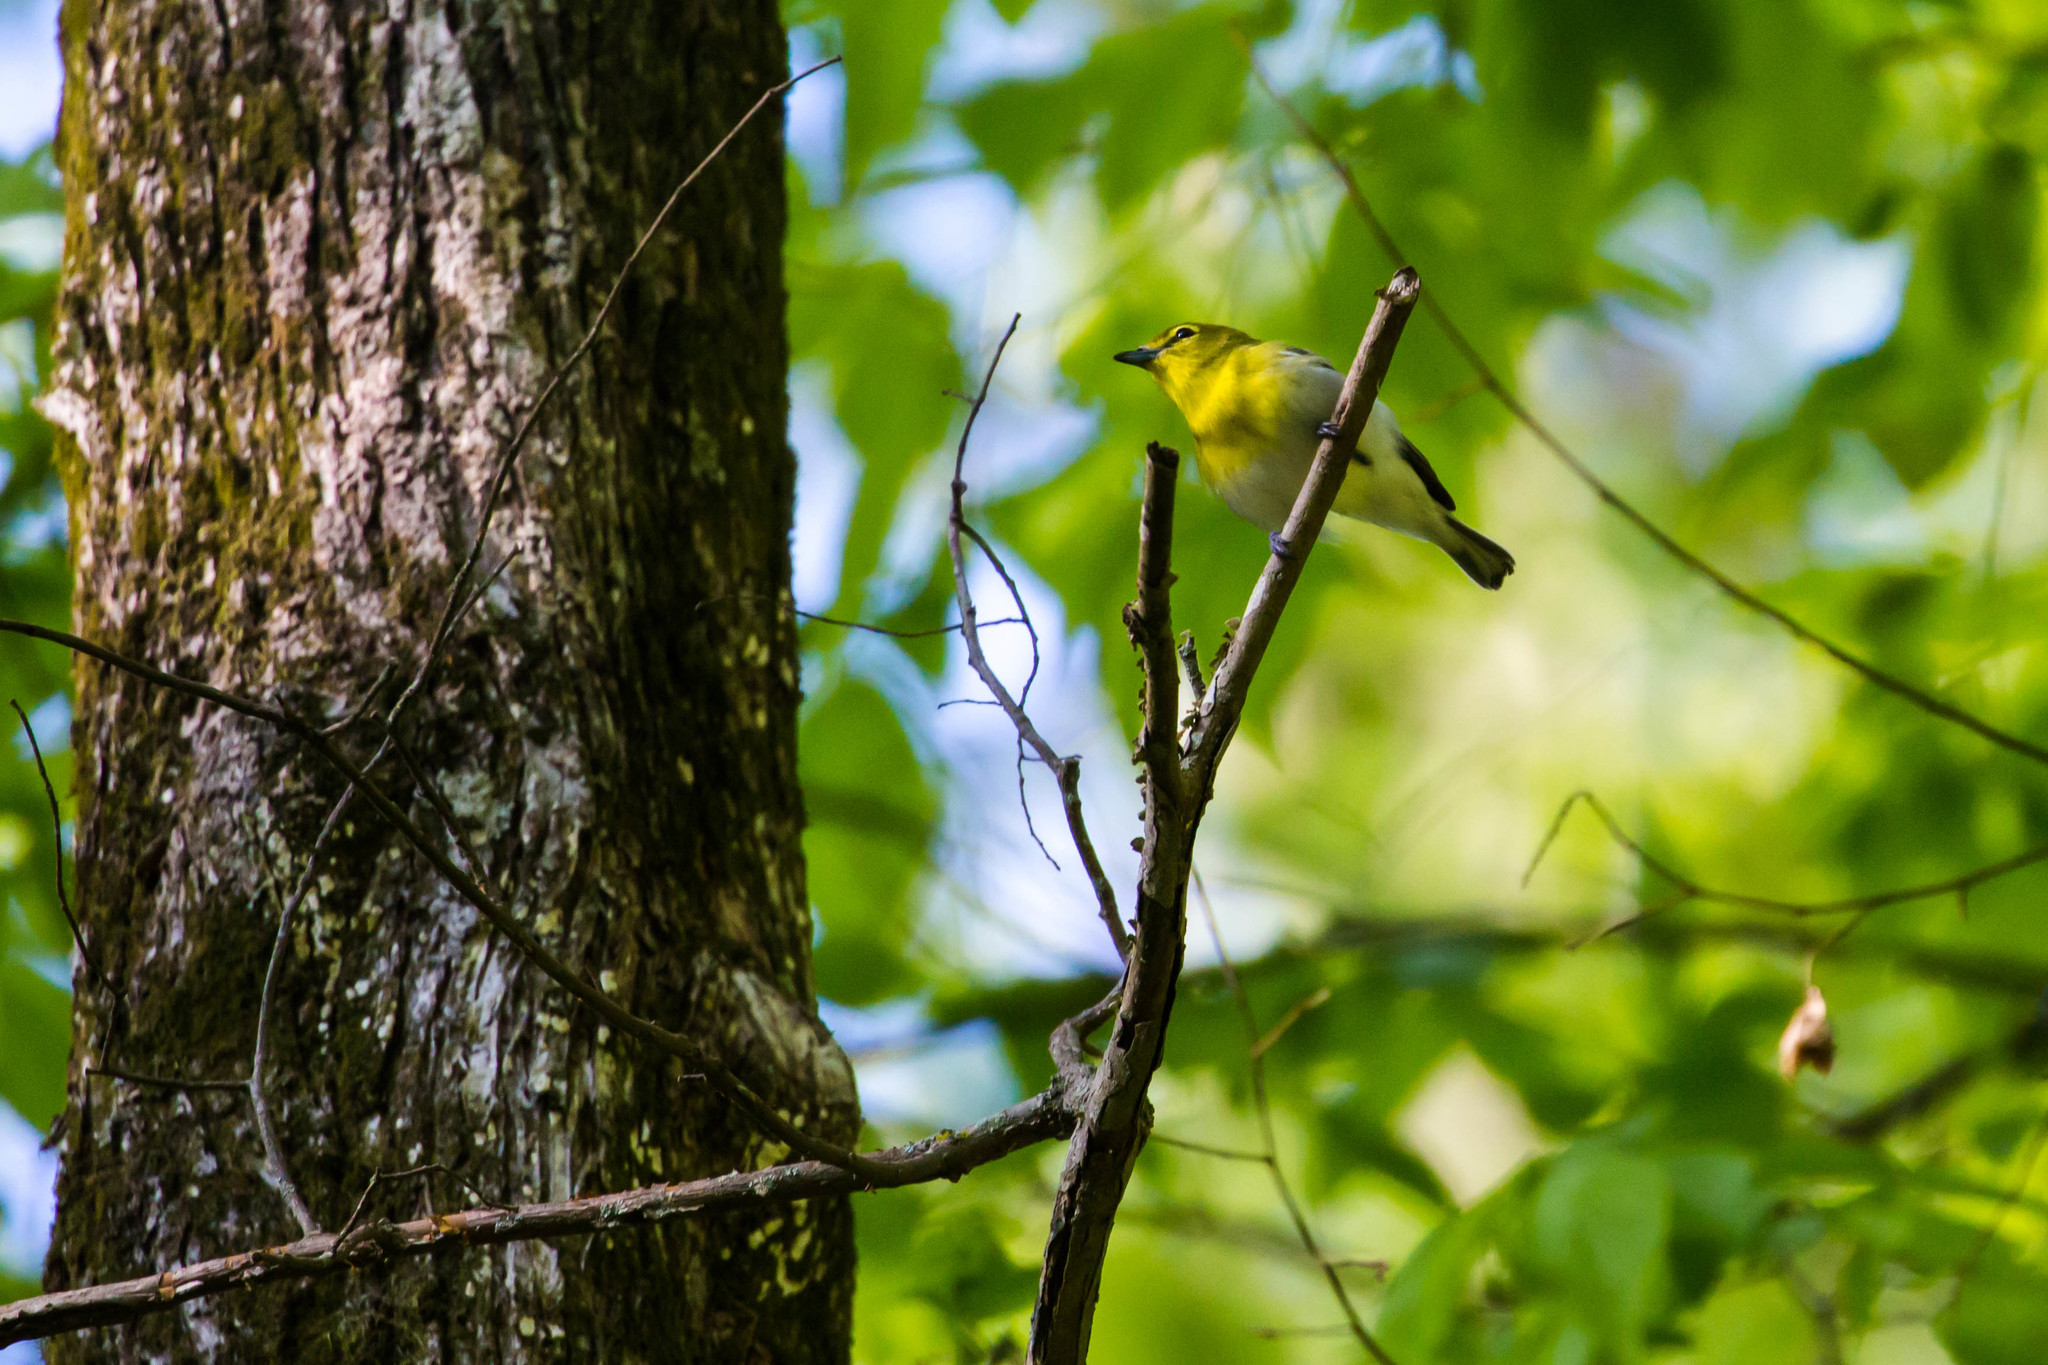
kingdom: Animalia
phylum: Chordata
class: Aves
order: Passeriformes
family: Vireonidae
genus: Vireo
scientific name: Vireo flavifrons
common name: Yellow-throated vireo
